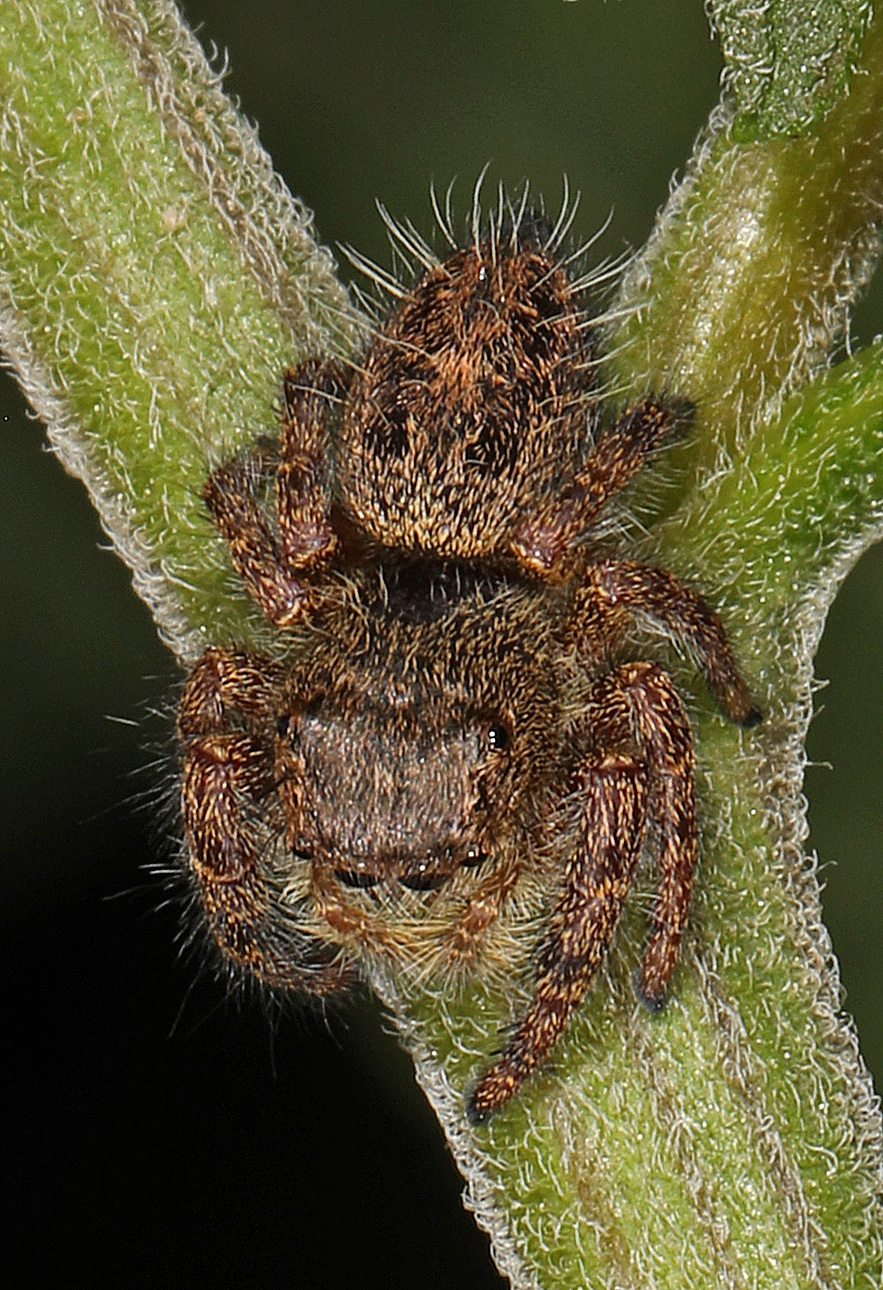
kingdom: Animalia
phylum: Arthropoda
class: Arachnida
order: Araneae
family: Salticidae
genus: Phidippus
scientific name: Phidippus princeps
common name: Grayish jumping spider
